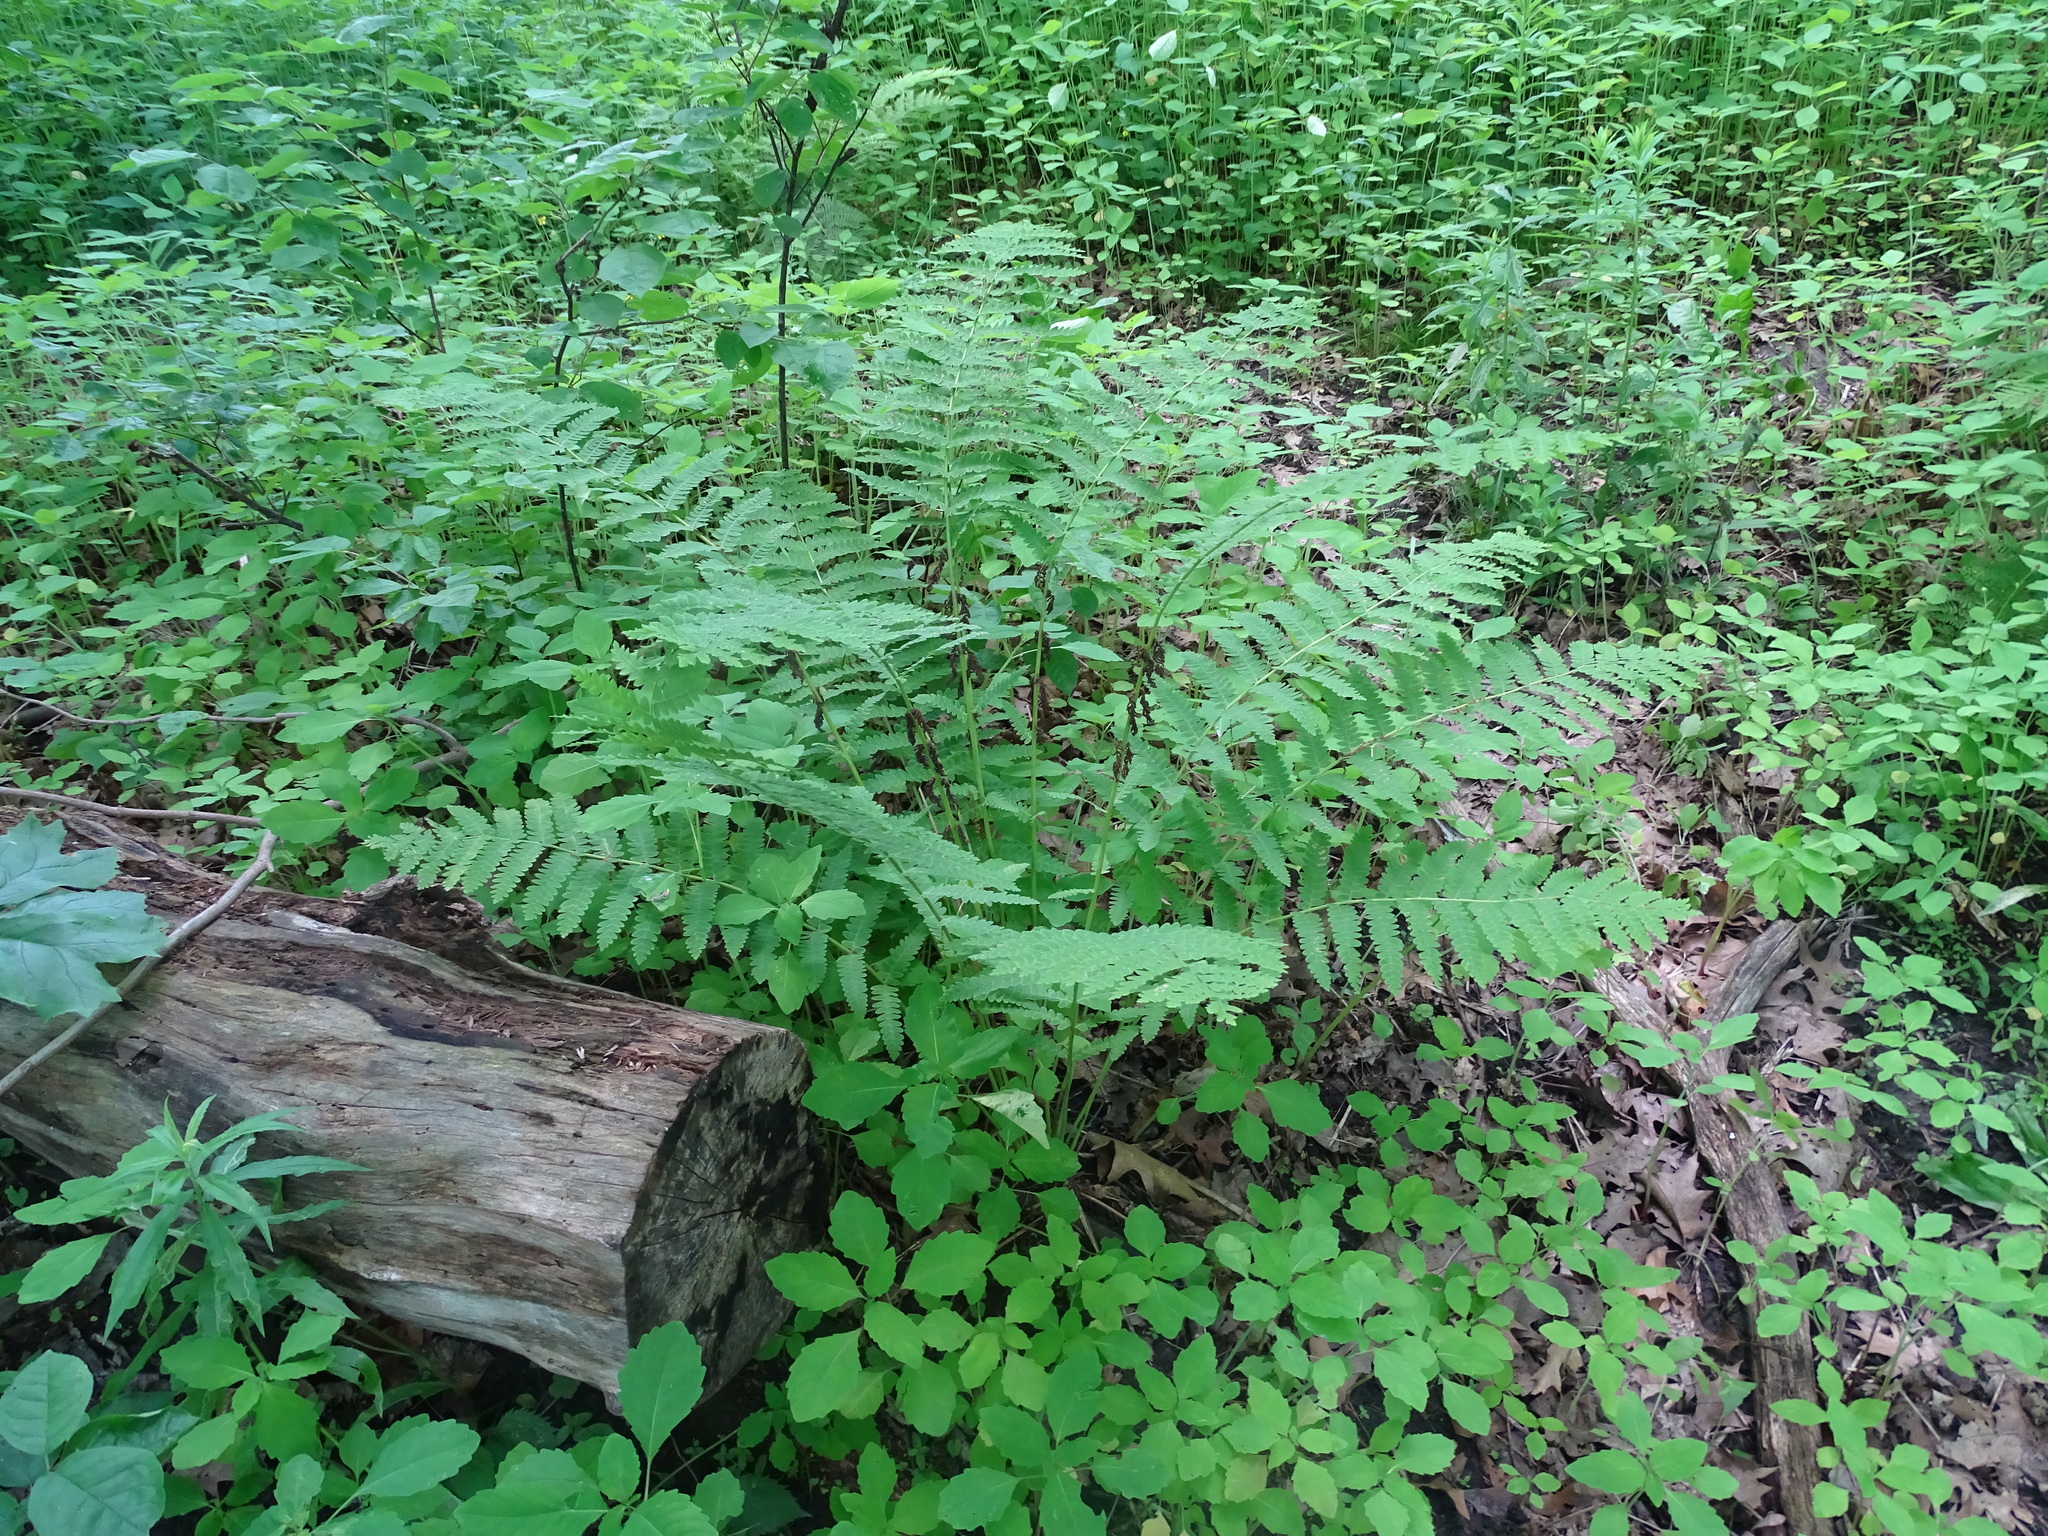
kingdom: Plantae
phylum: Tracheophyta
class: Polypodiopsida
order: Osmundales
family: Osmundaceae
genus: Claytosmunda
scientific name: Claytosmunda claytoniana
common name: Clayton's fern
